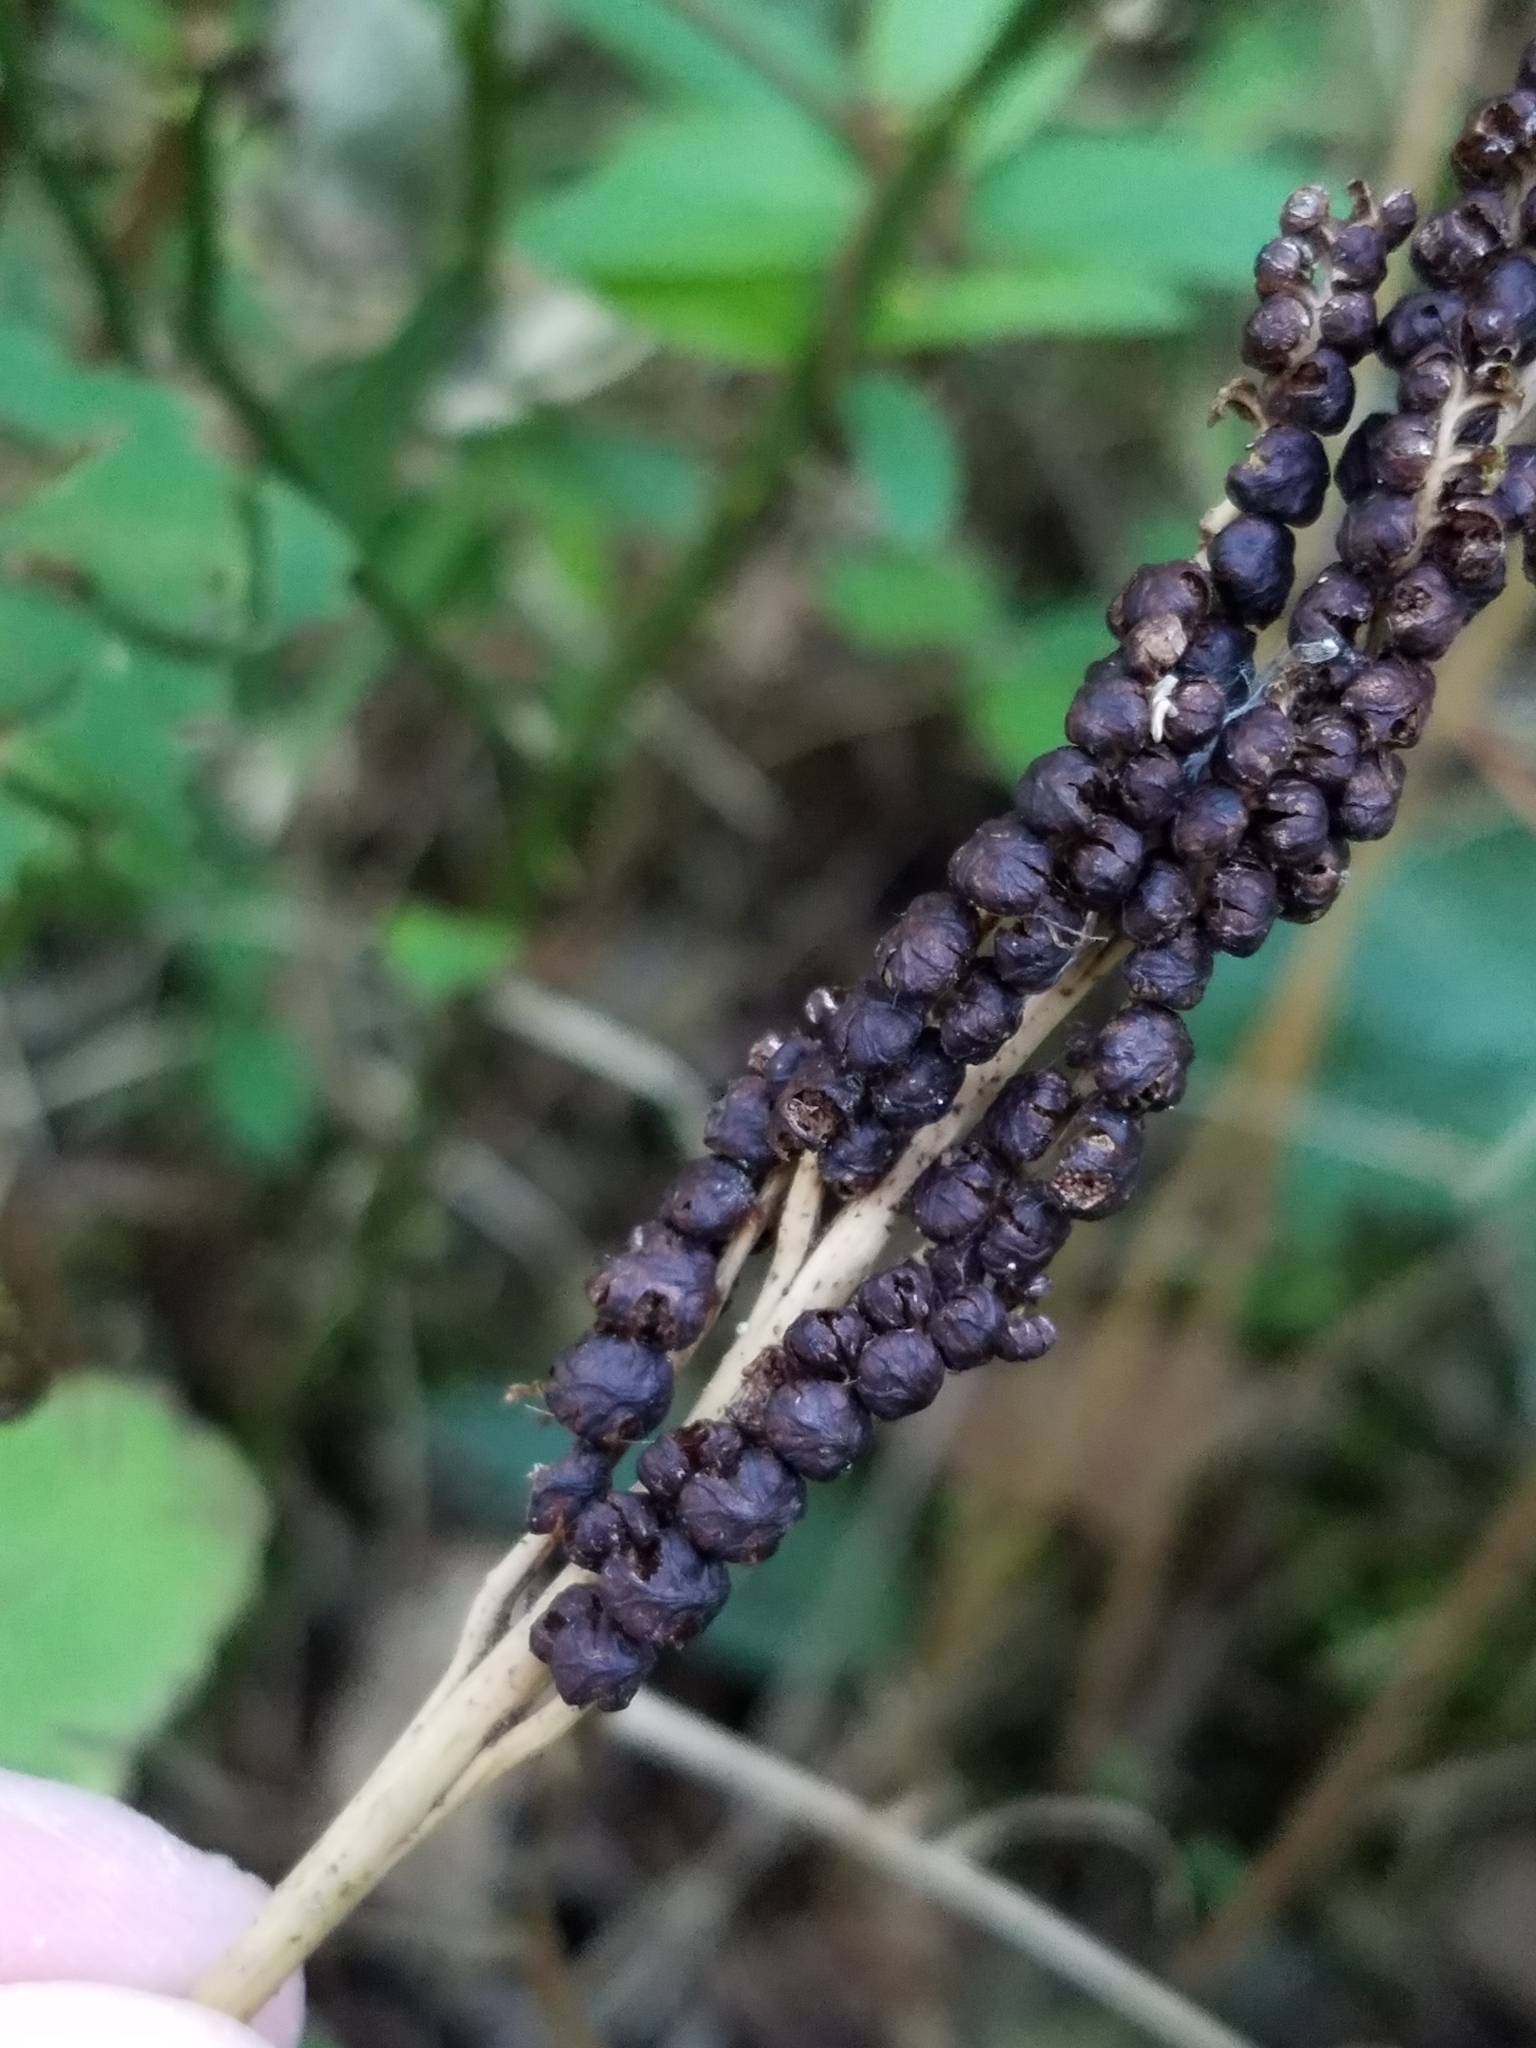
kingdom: Plantae
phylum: Tracheophyta
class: Polypodiopsida
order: Polypodiales
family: Onocleaceae
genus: Onoclea
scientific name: Onoclea sensibilis
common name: Sensitive fern
